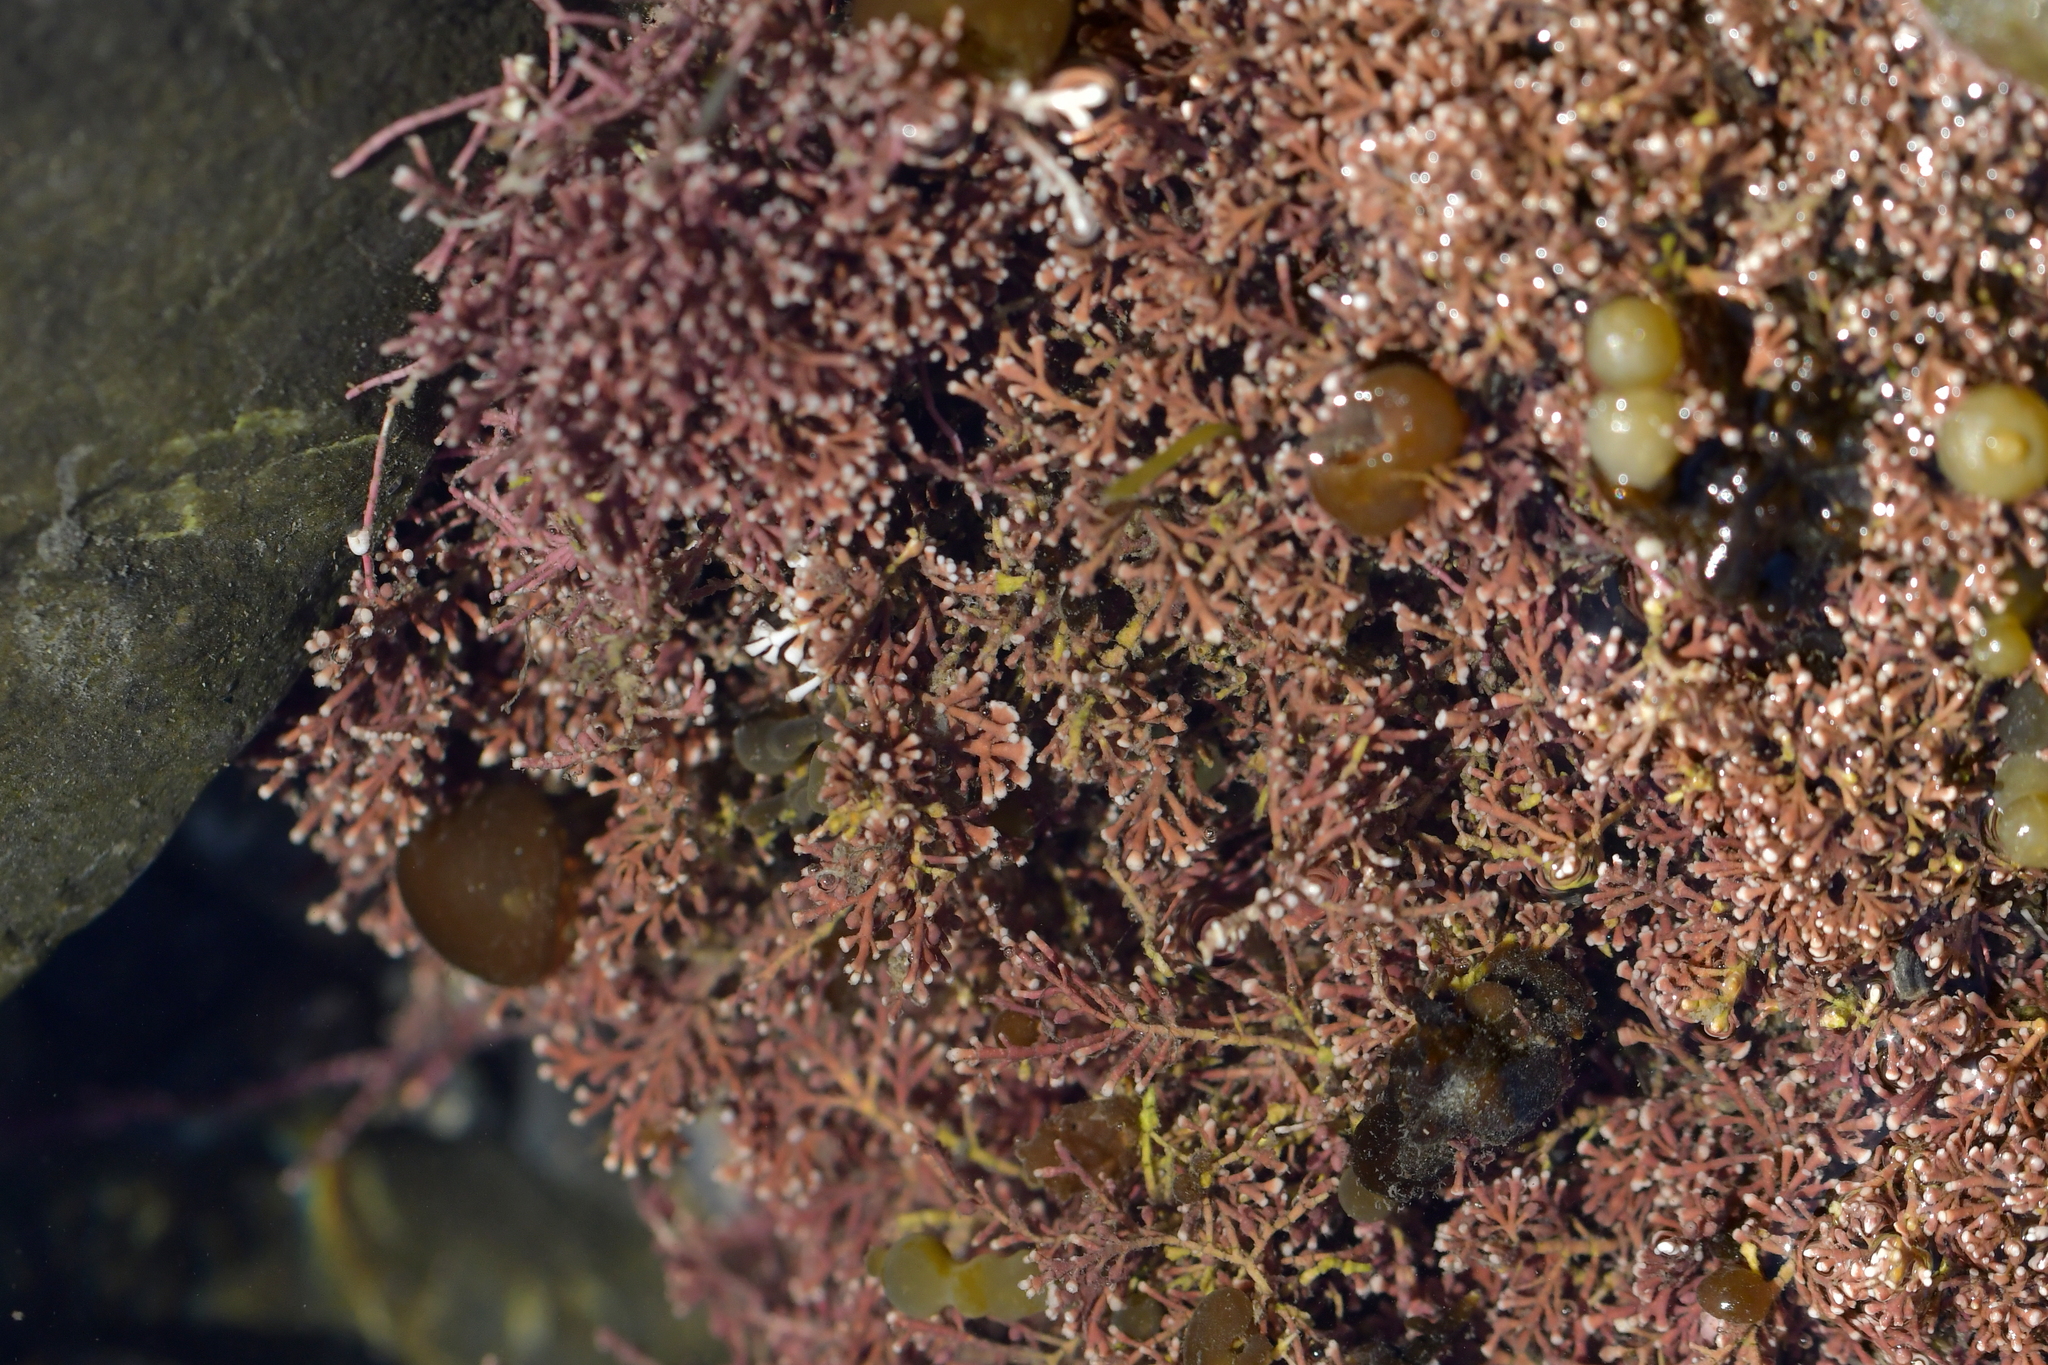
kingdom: Plantae
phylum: Rhodophyta
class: Florideophyceae
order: Corallinales
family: Corallinaceae
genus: Corallina
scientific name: Corallina officinalis
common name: Coral weed
